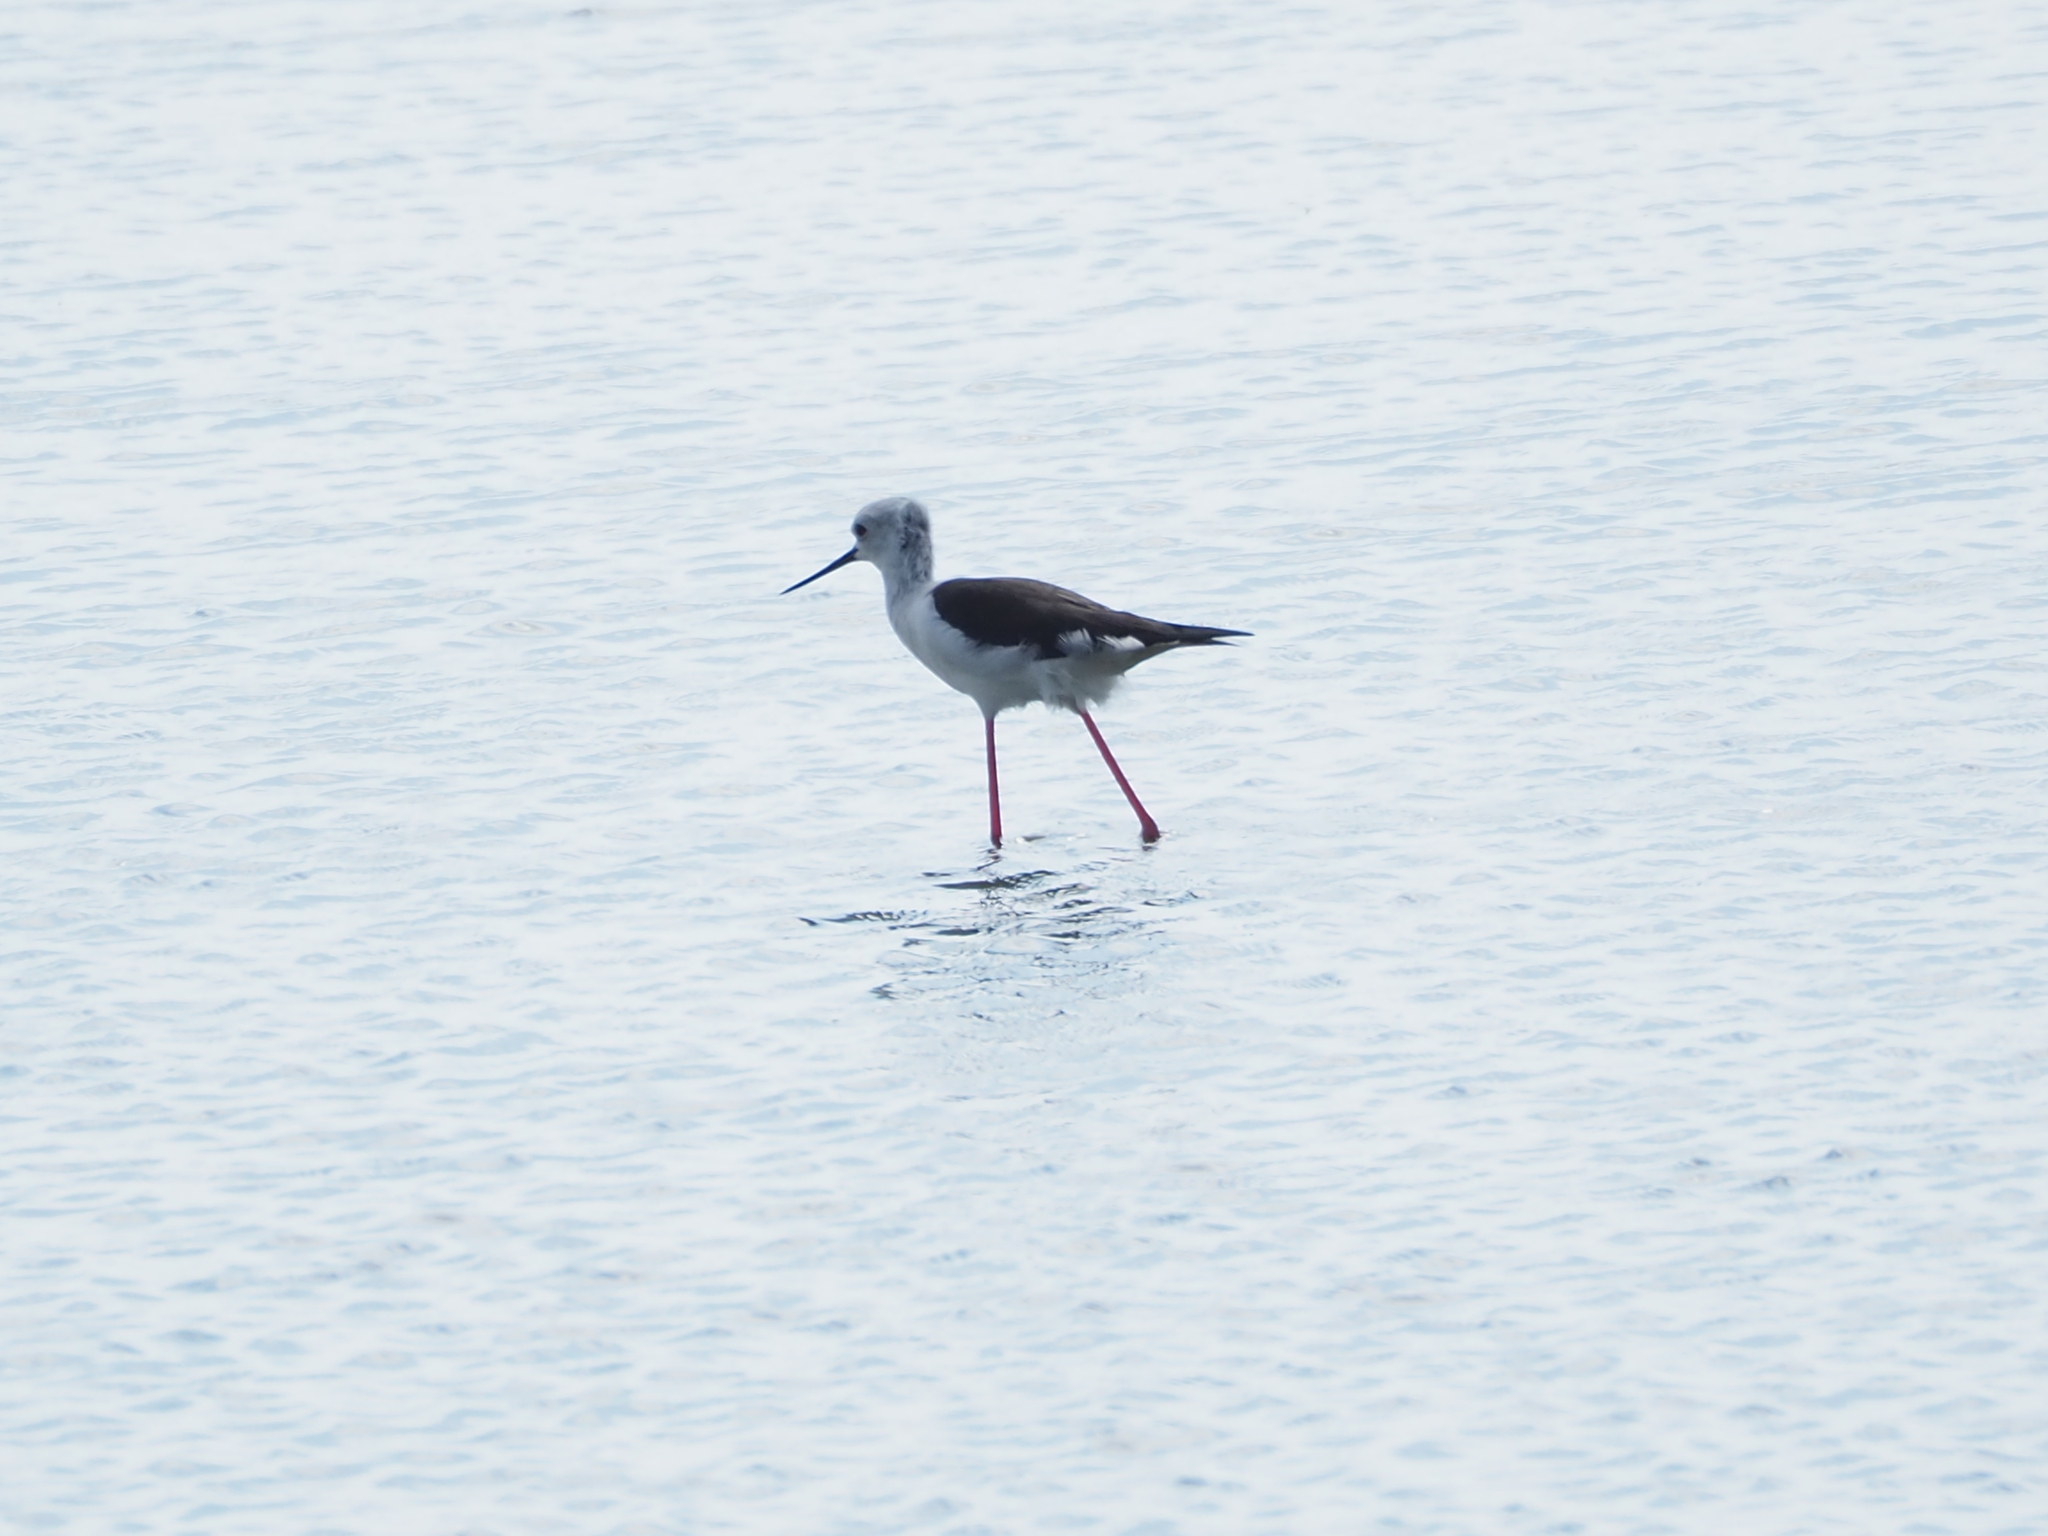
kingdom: Animalia
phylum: Chordata
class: Aves
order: Charadriiformes
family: Recurvirostridae
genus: Himantopus
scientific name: Himantopus himantopus
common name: Black-winged stilt
